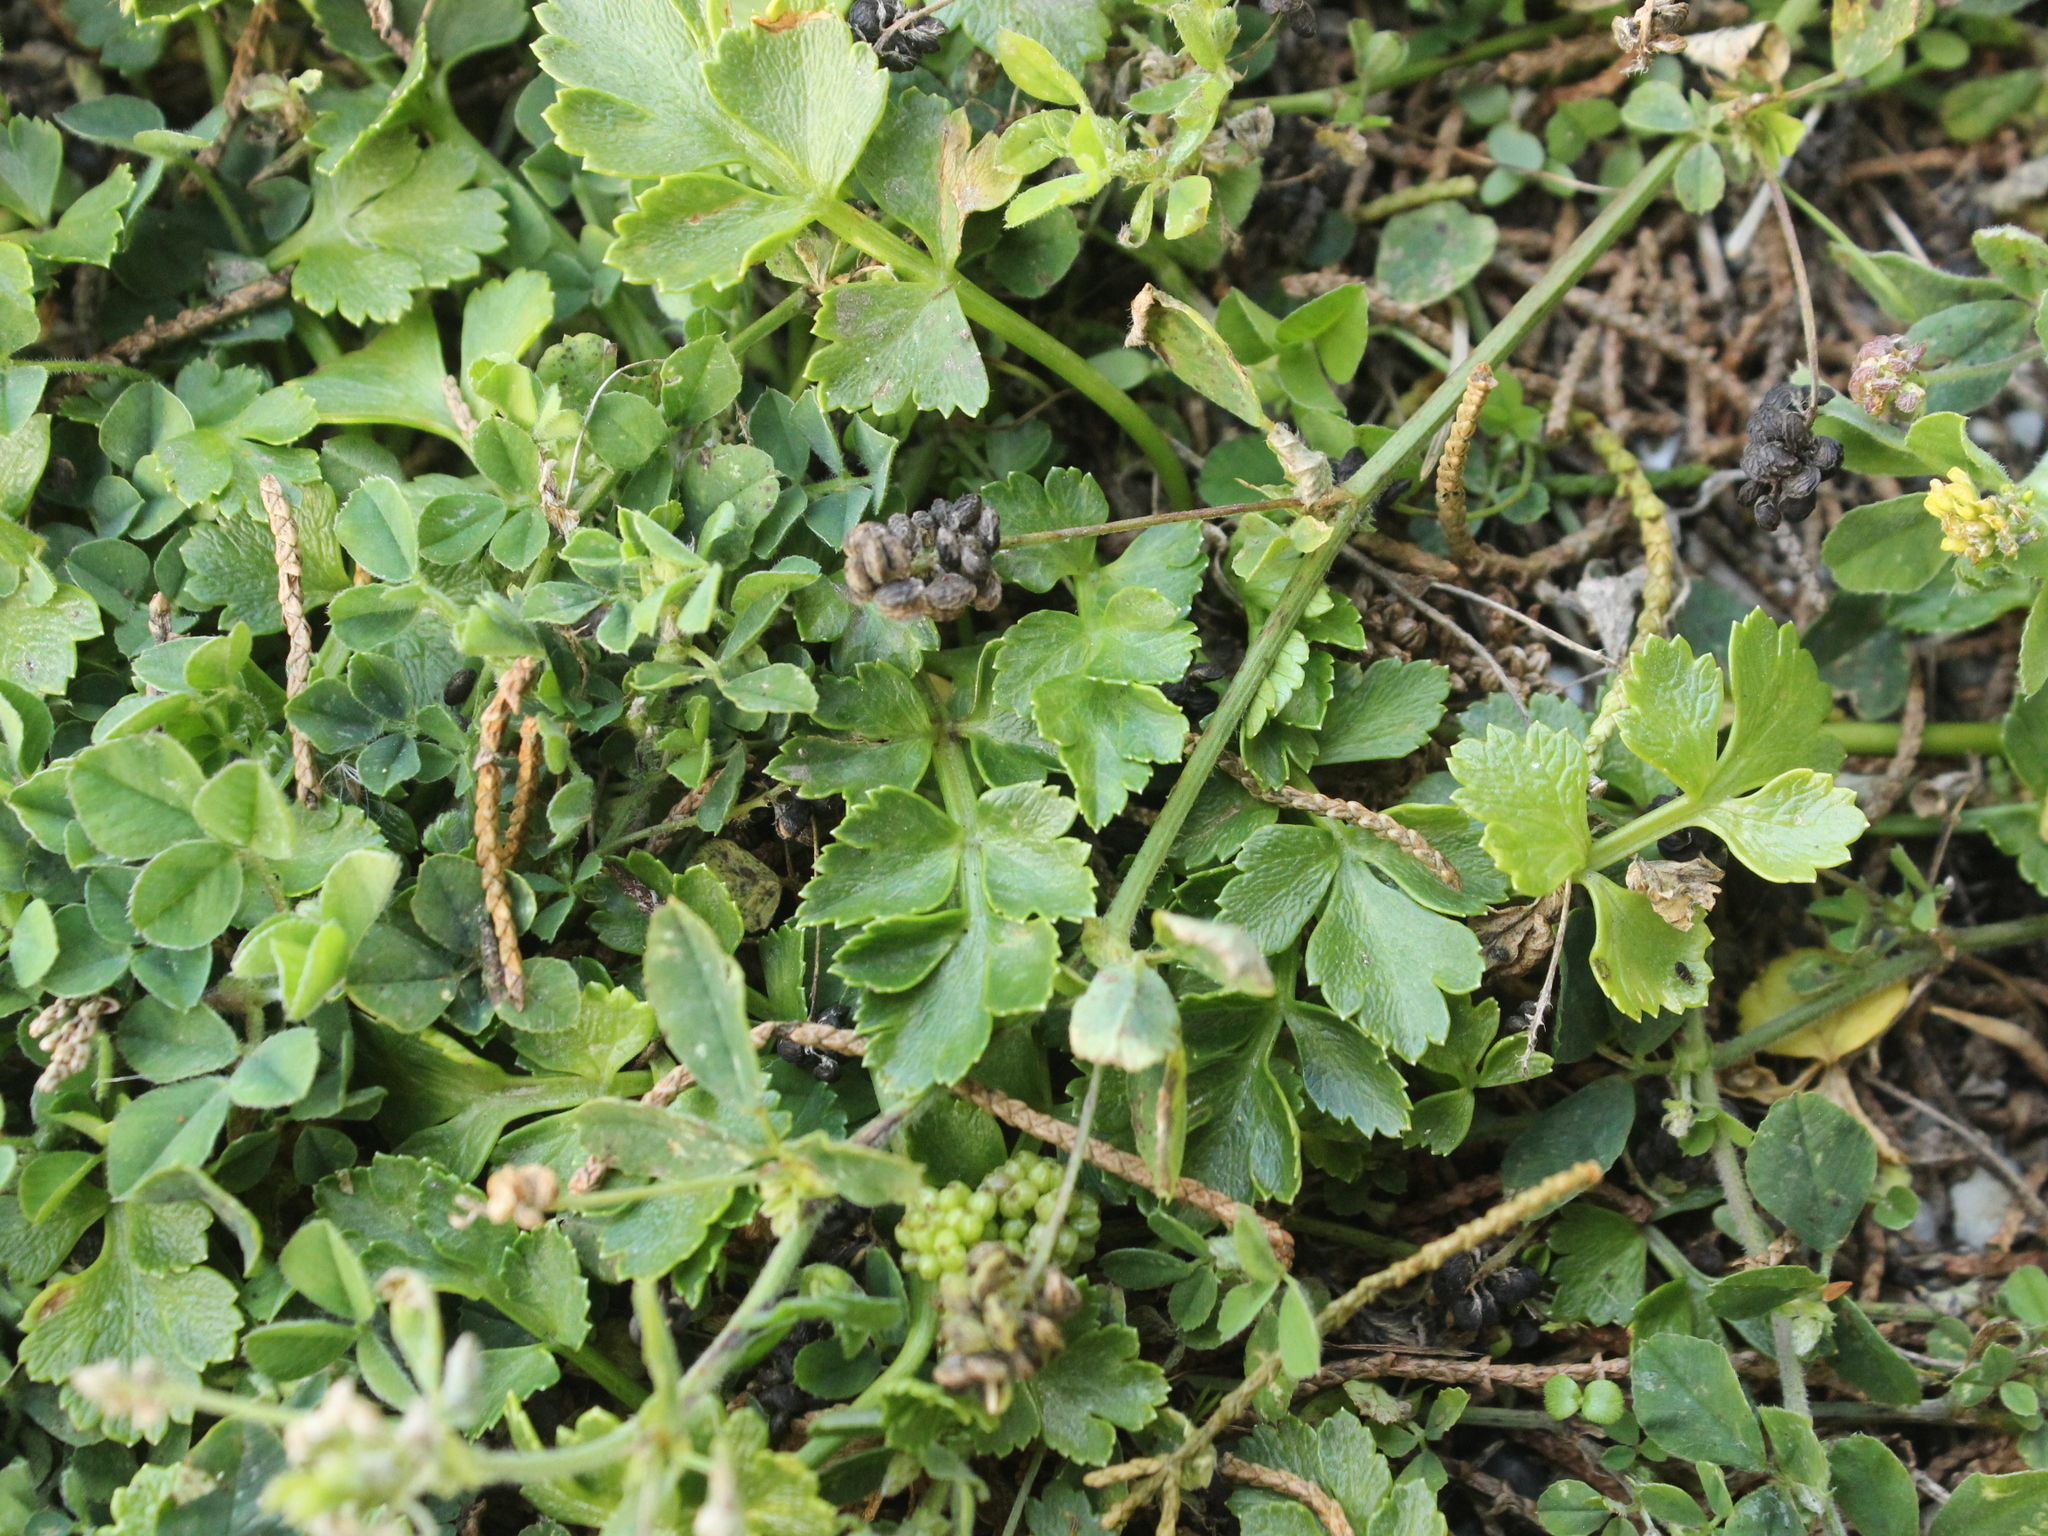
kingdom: Plantae
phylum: Tracheophyta
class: Magnoliopsida
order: Apiales
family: Apiaceae
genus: Apium
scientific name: Apium prostratum
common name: Prostrate marshwort
